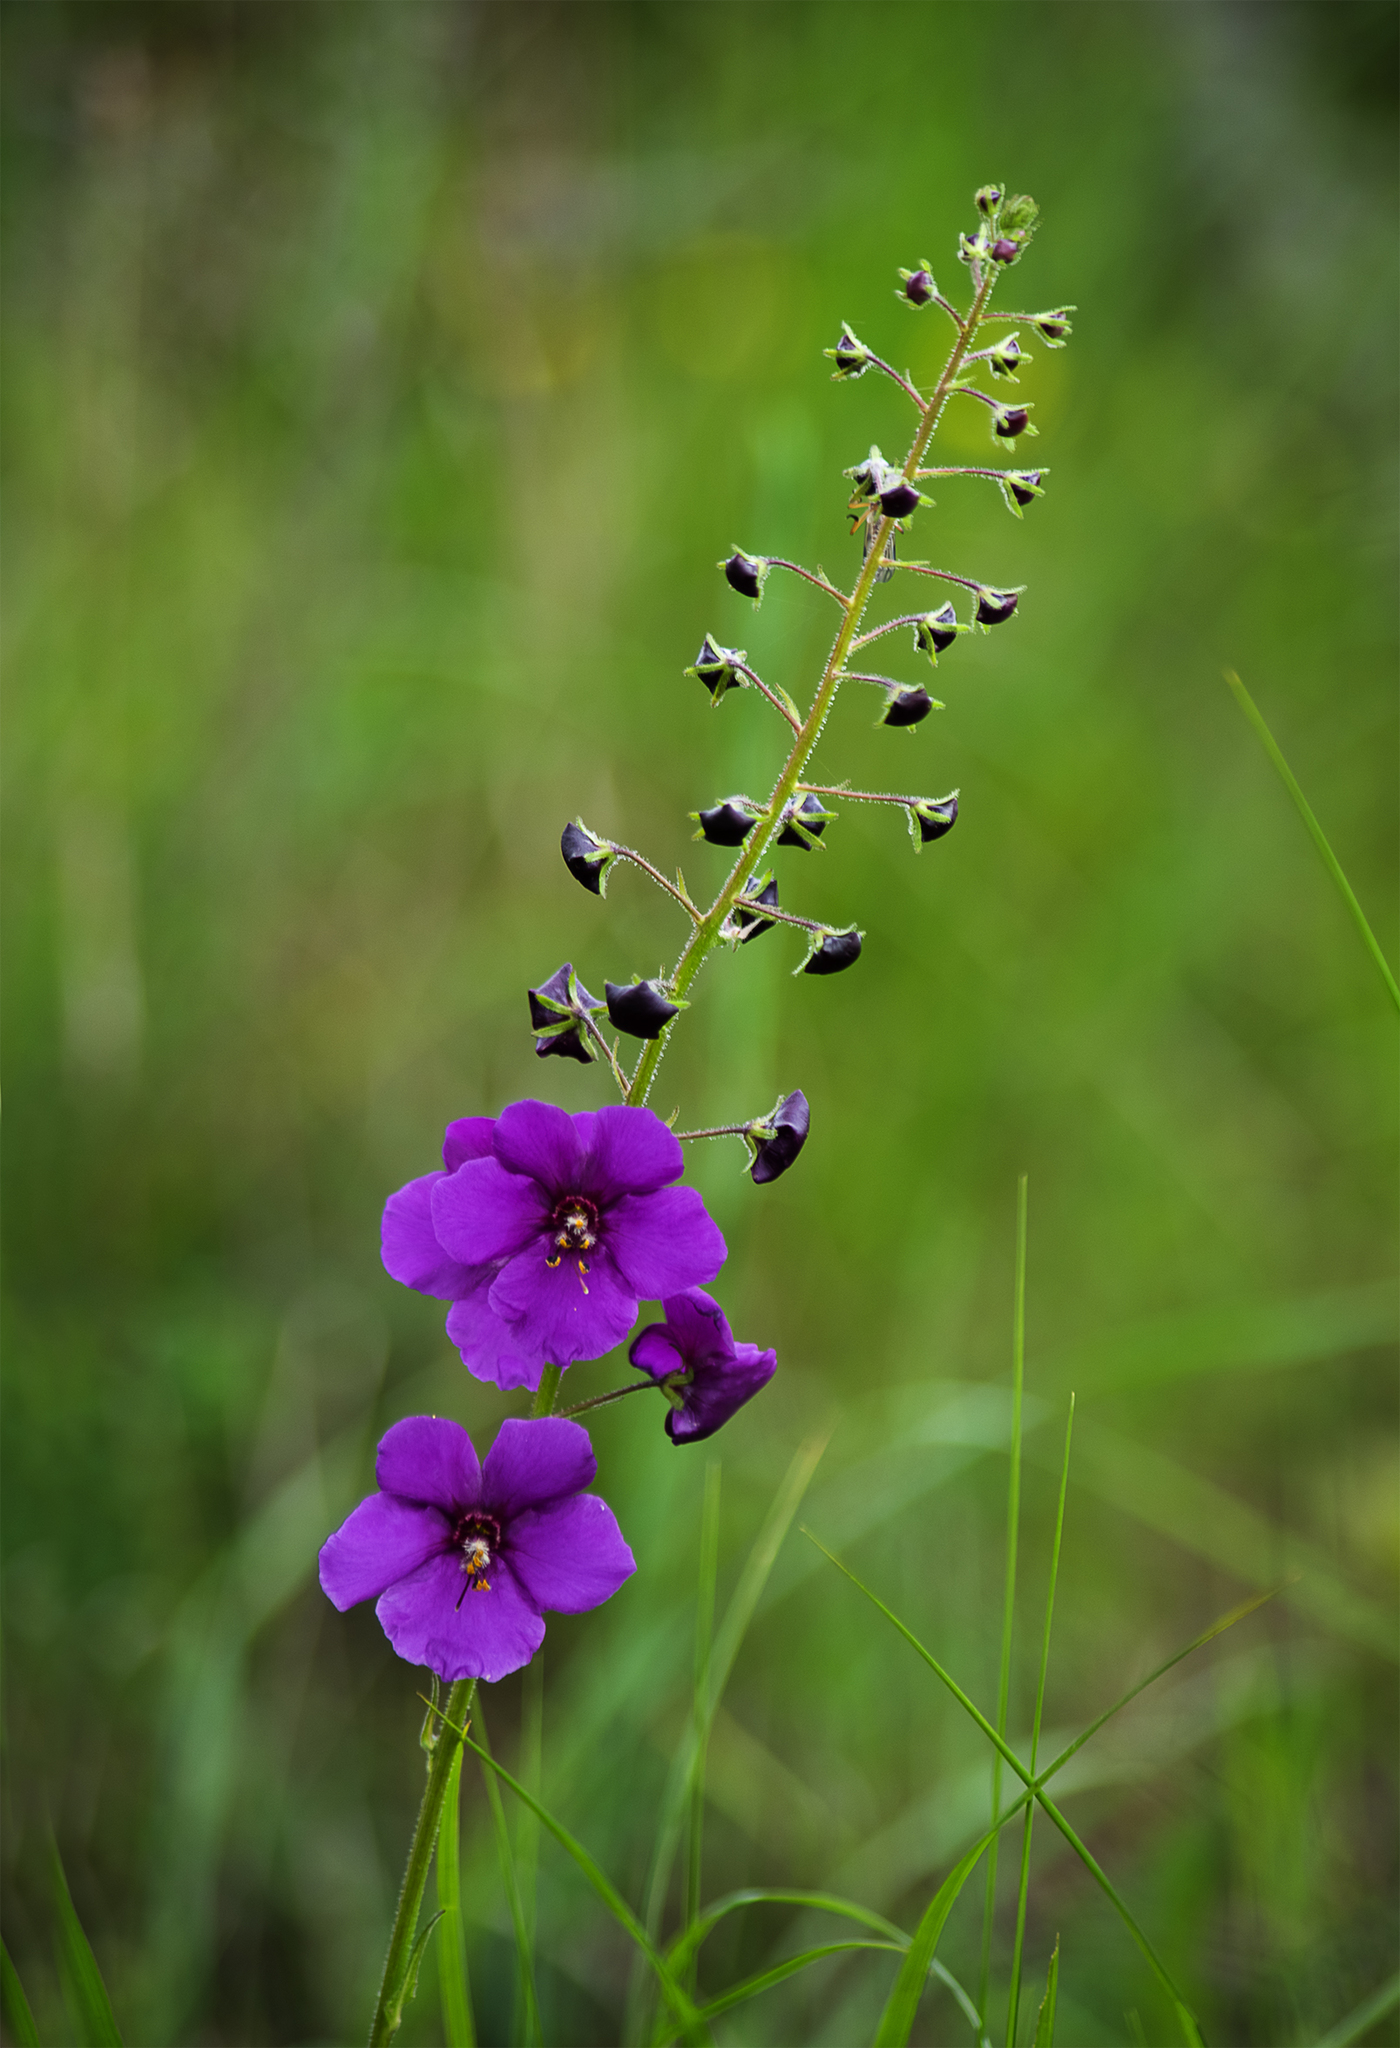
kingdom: Plantae
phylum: Tracheophyta
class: Magnoliopsida
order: Lamiales
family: Scrophulariaceae
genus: Verbascum
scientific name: Verbascum phoeniceum
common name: Purple mullein
